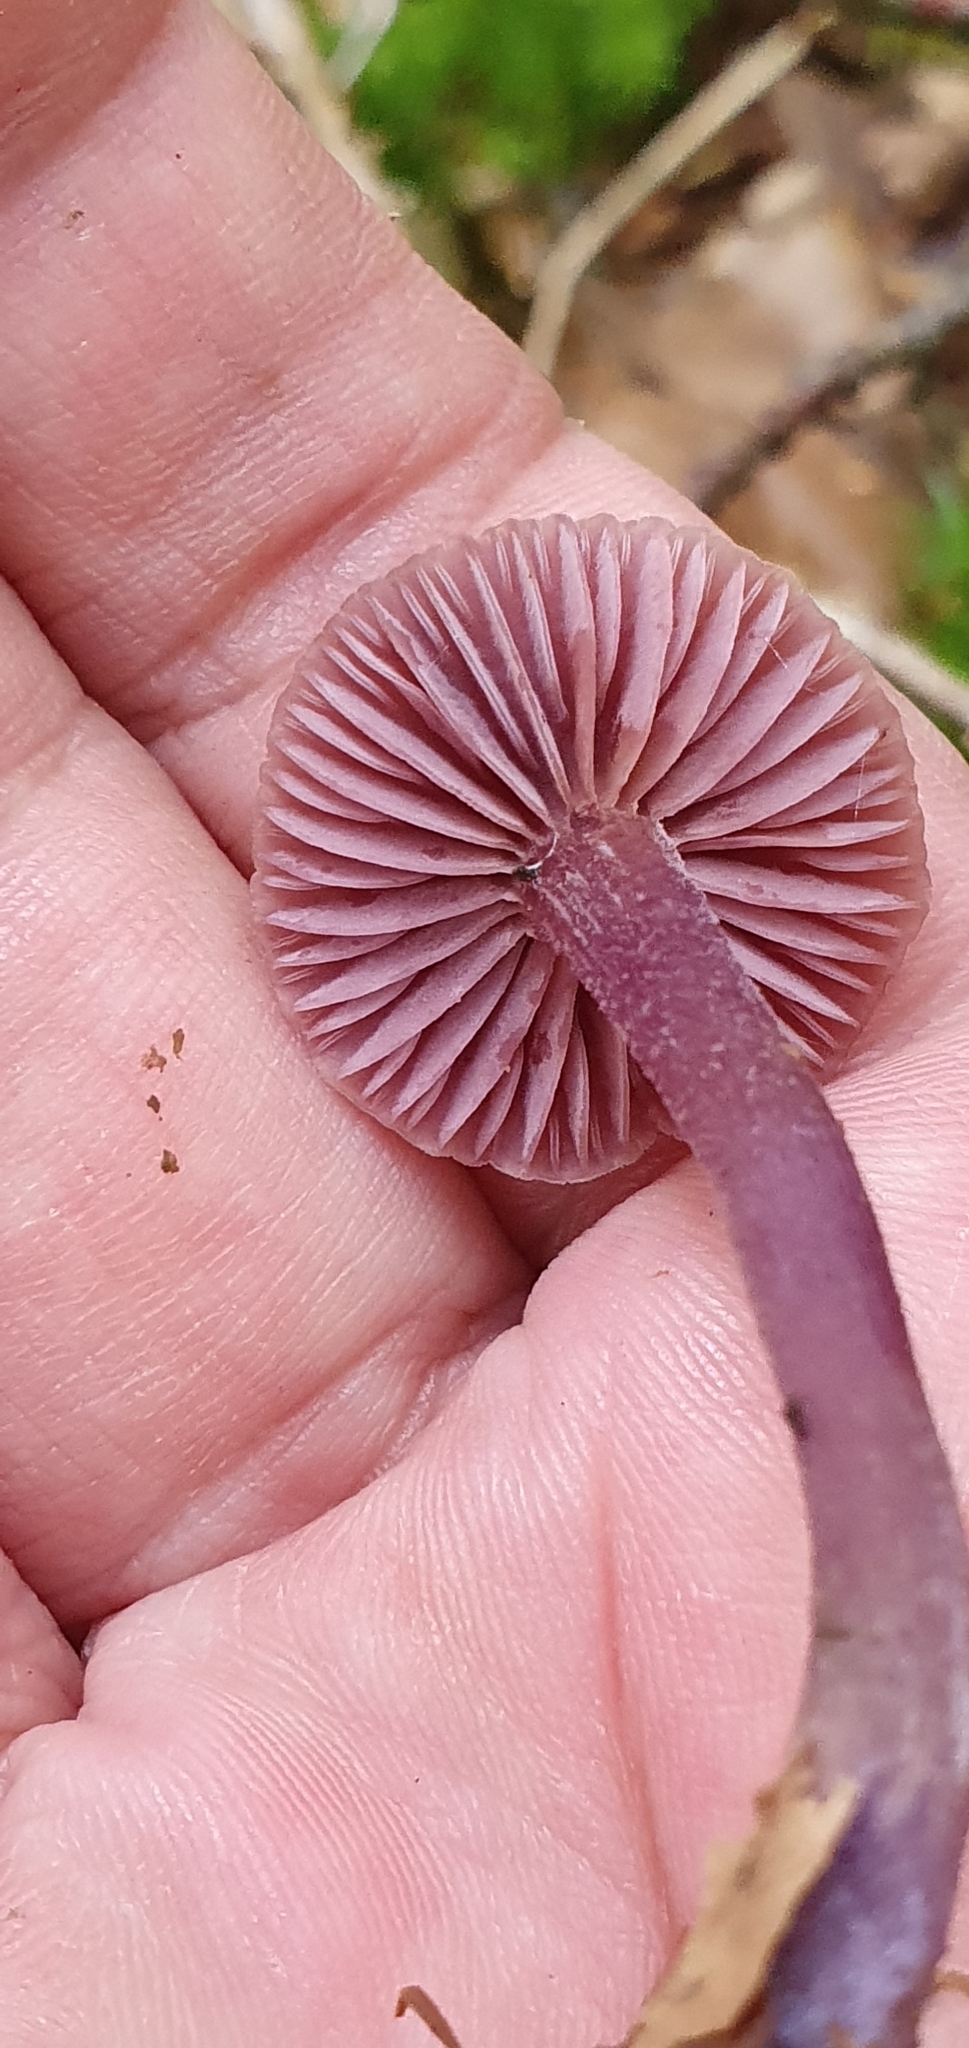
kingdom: Fungi
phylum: Basidiomycota
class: Agaricomycetes
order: Agaricales
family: Hydnangiaceae
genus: Laccaria
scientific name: Laccaria amethystina
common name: Amethyst deceiver
